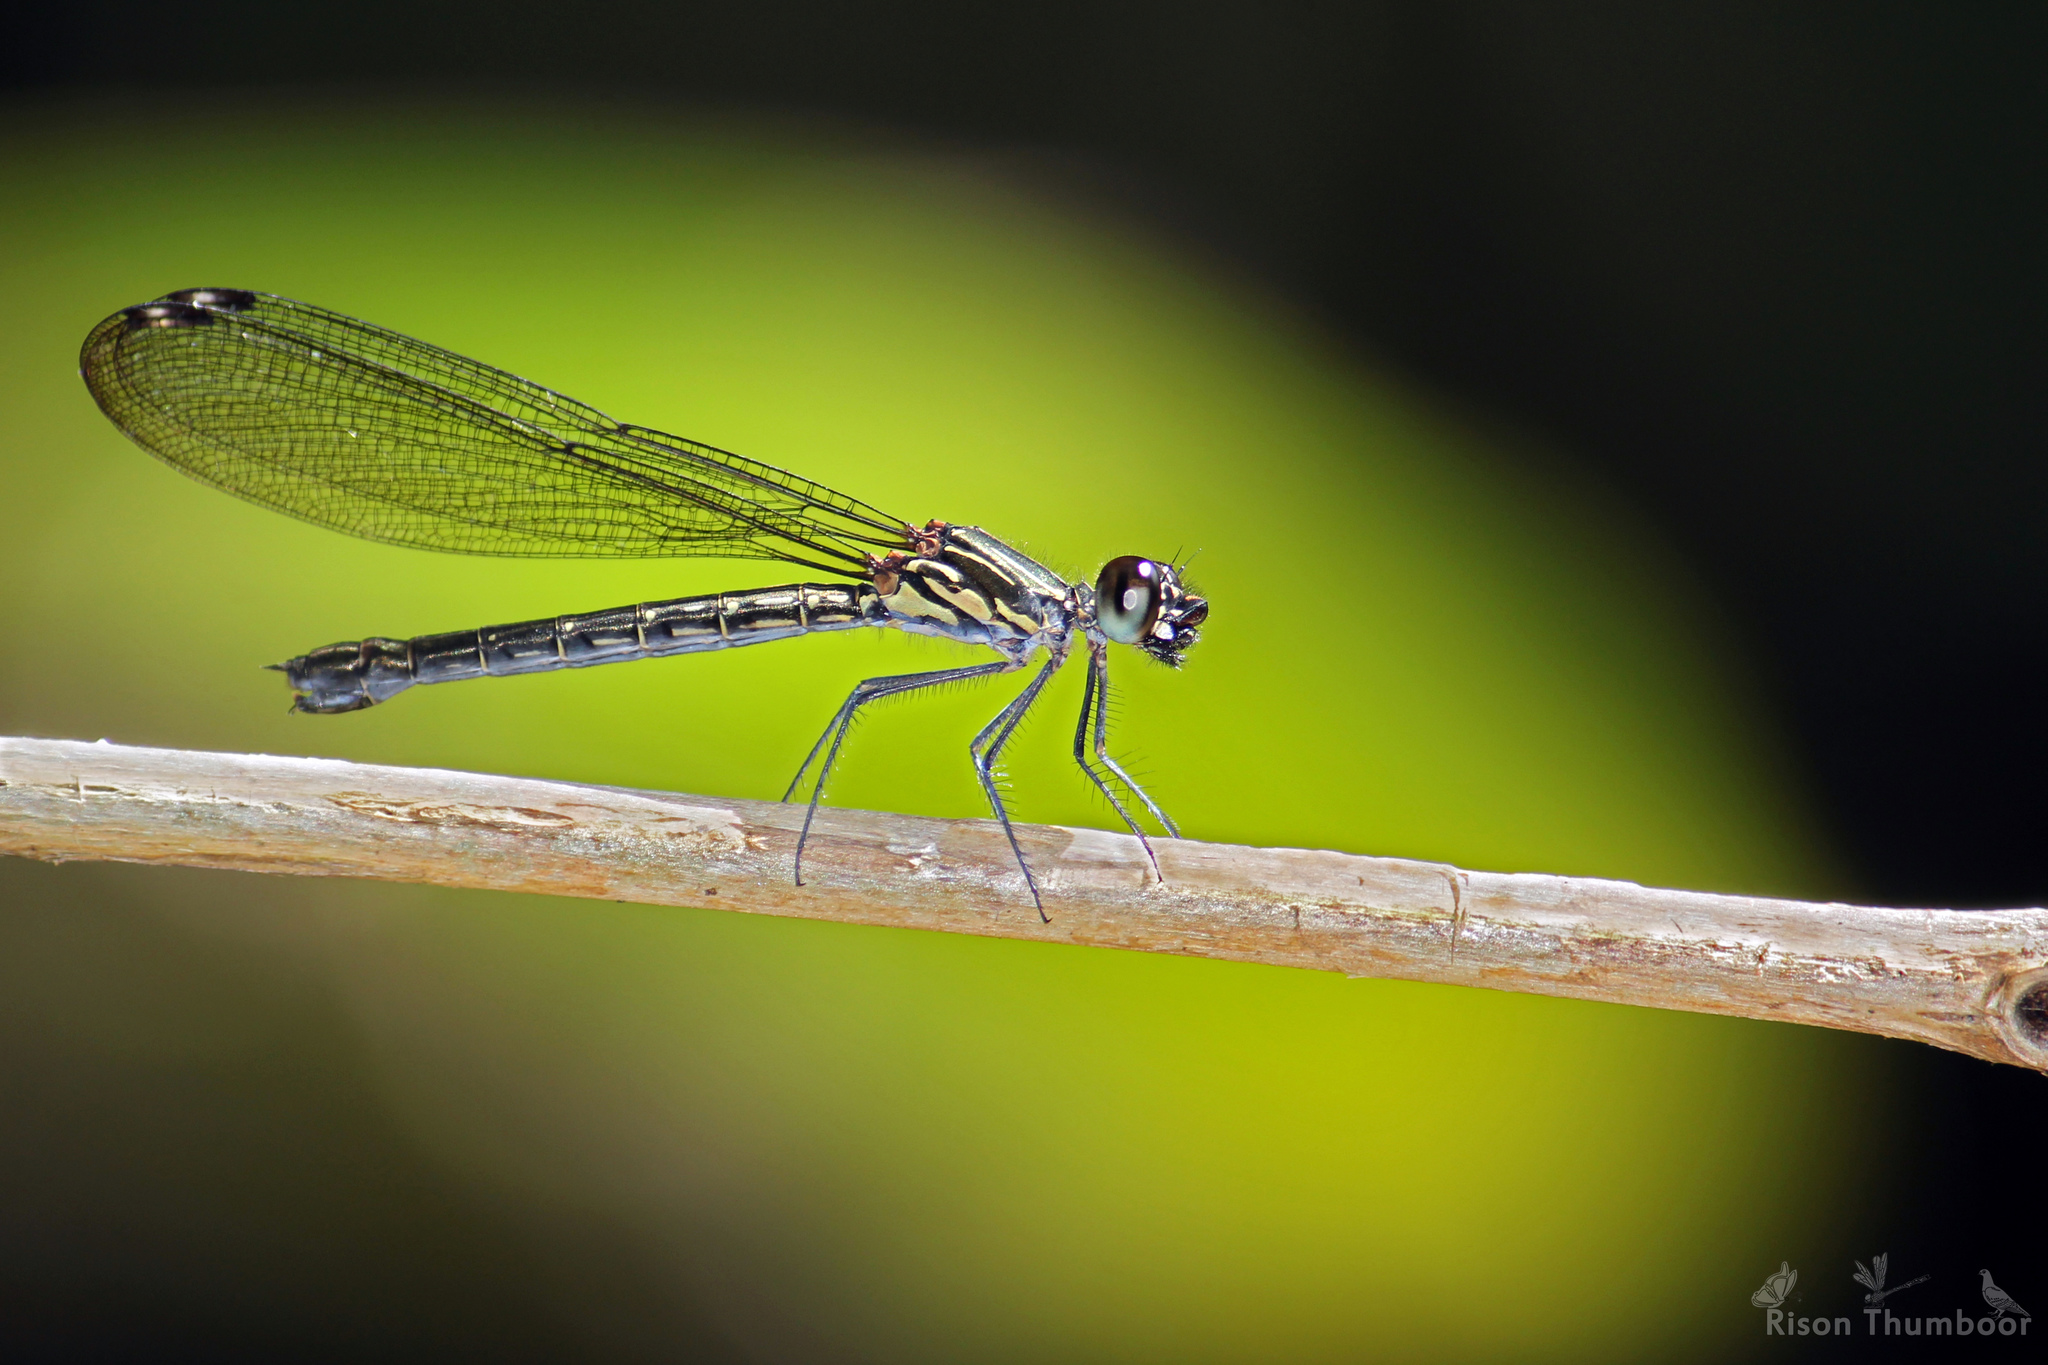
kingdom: Animalia
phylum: Arthropoda
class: Insecta
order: Odonata
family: Chlorocyphidae
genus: Heliocypha
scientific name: Heliocypha bisignata
